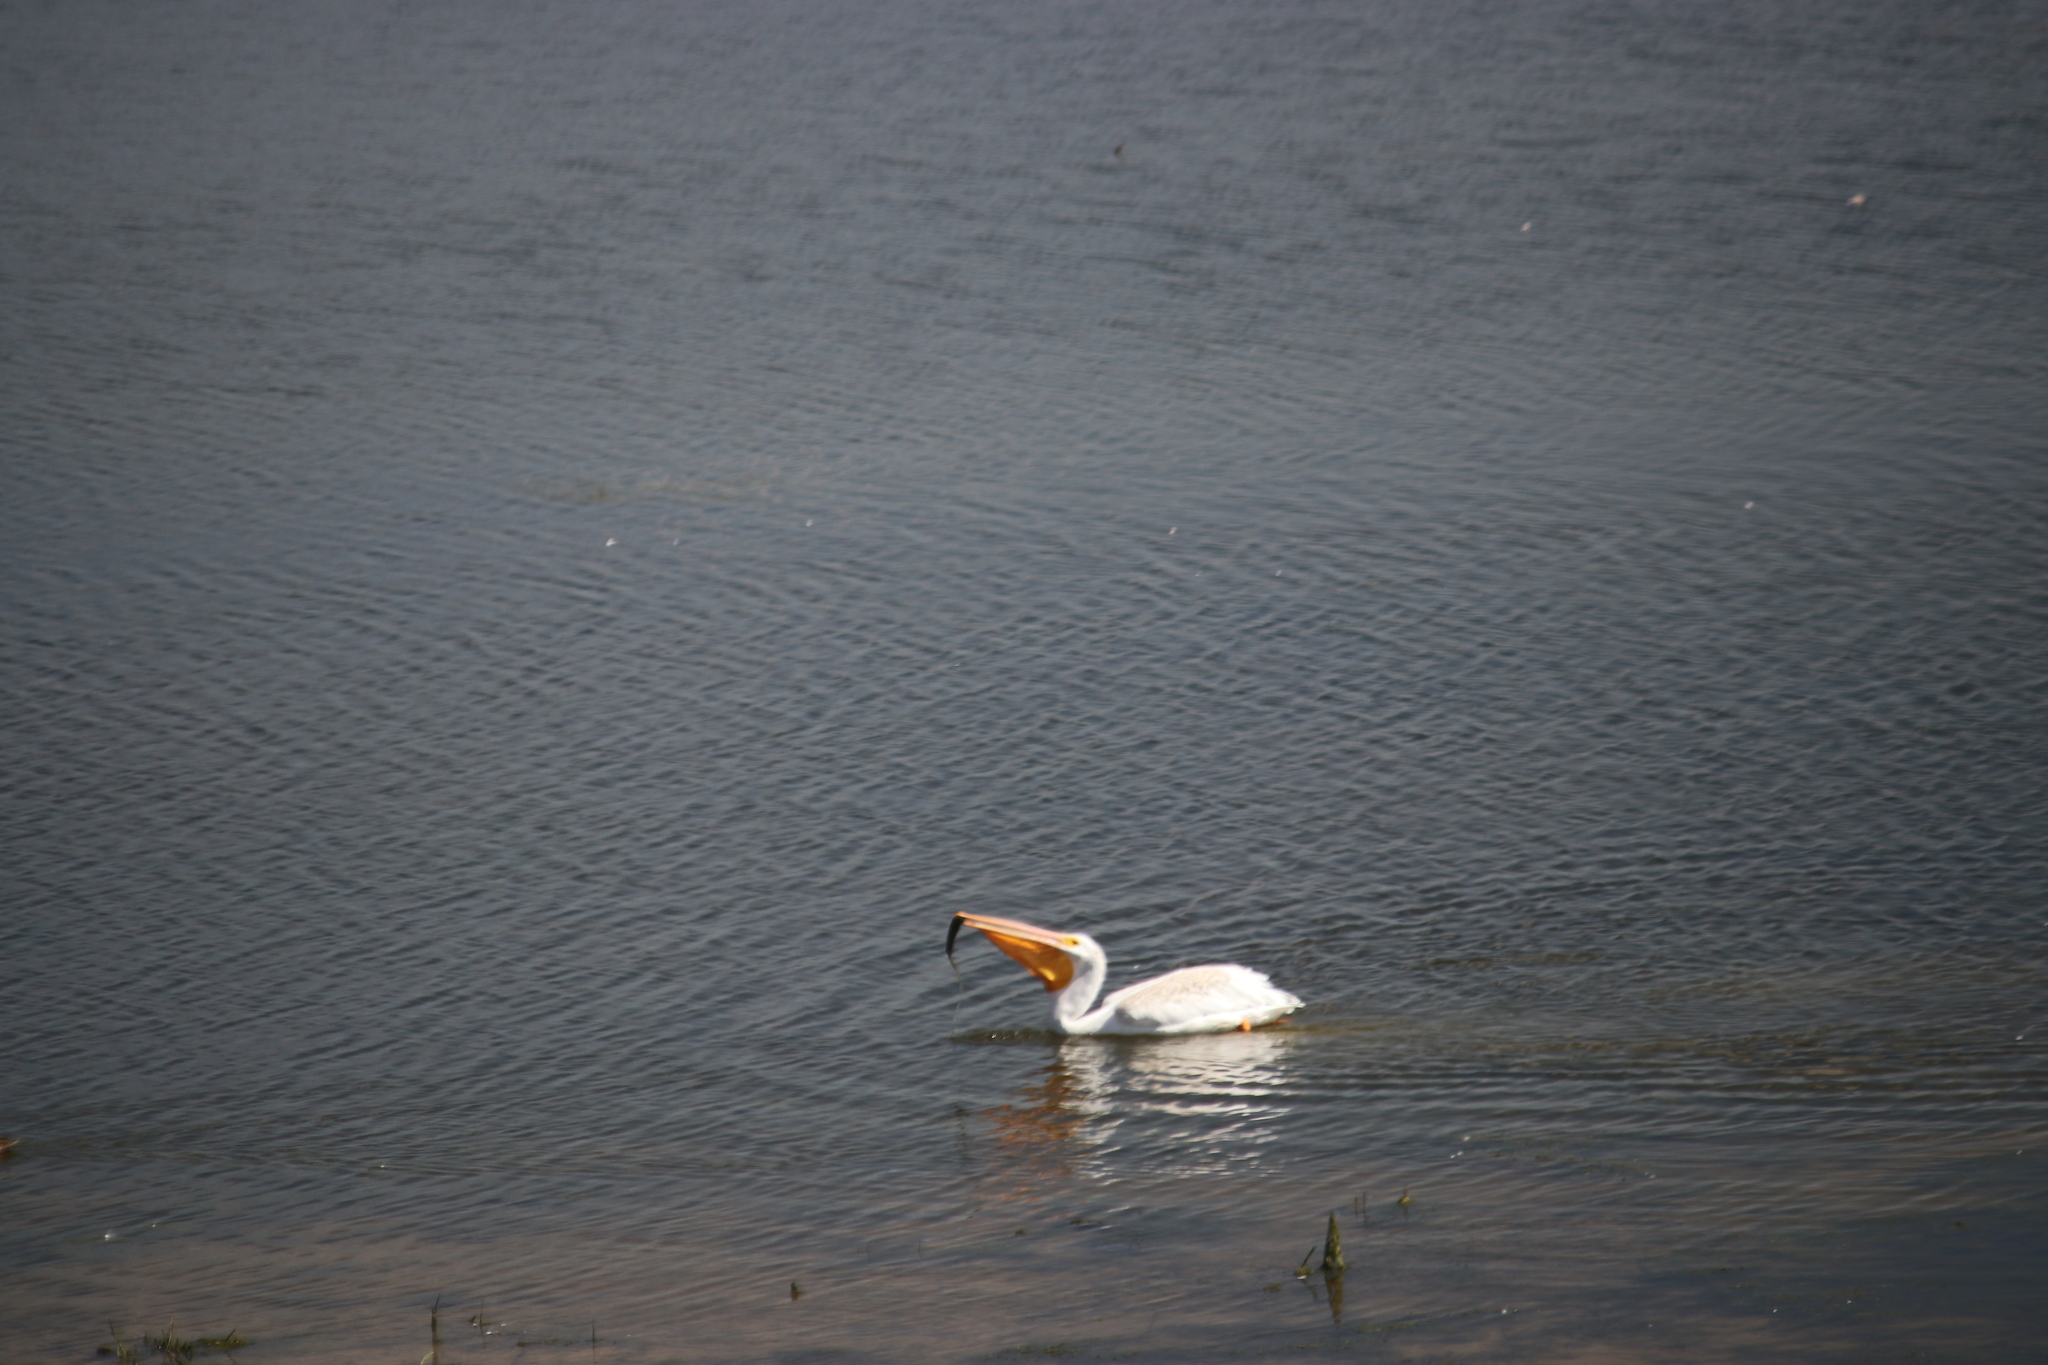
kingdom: Animalia
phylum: Chordata
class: Aves
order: Pelecaniformes
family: Pelecanidae
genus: Pelecanus
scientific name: Pelecanus erythrorhynchos
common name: American white pelican
